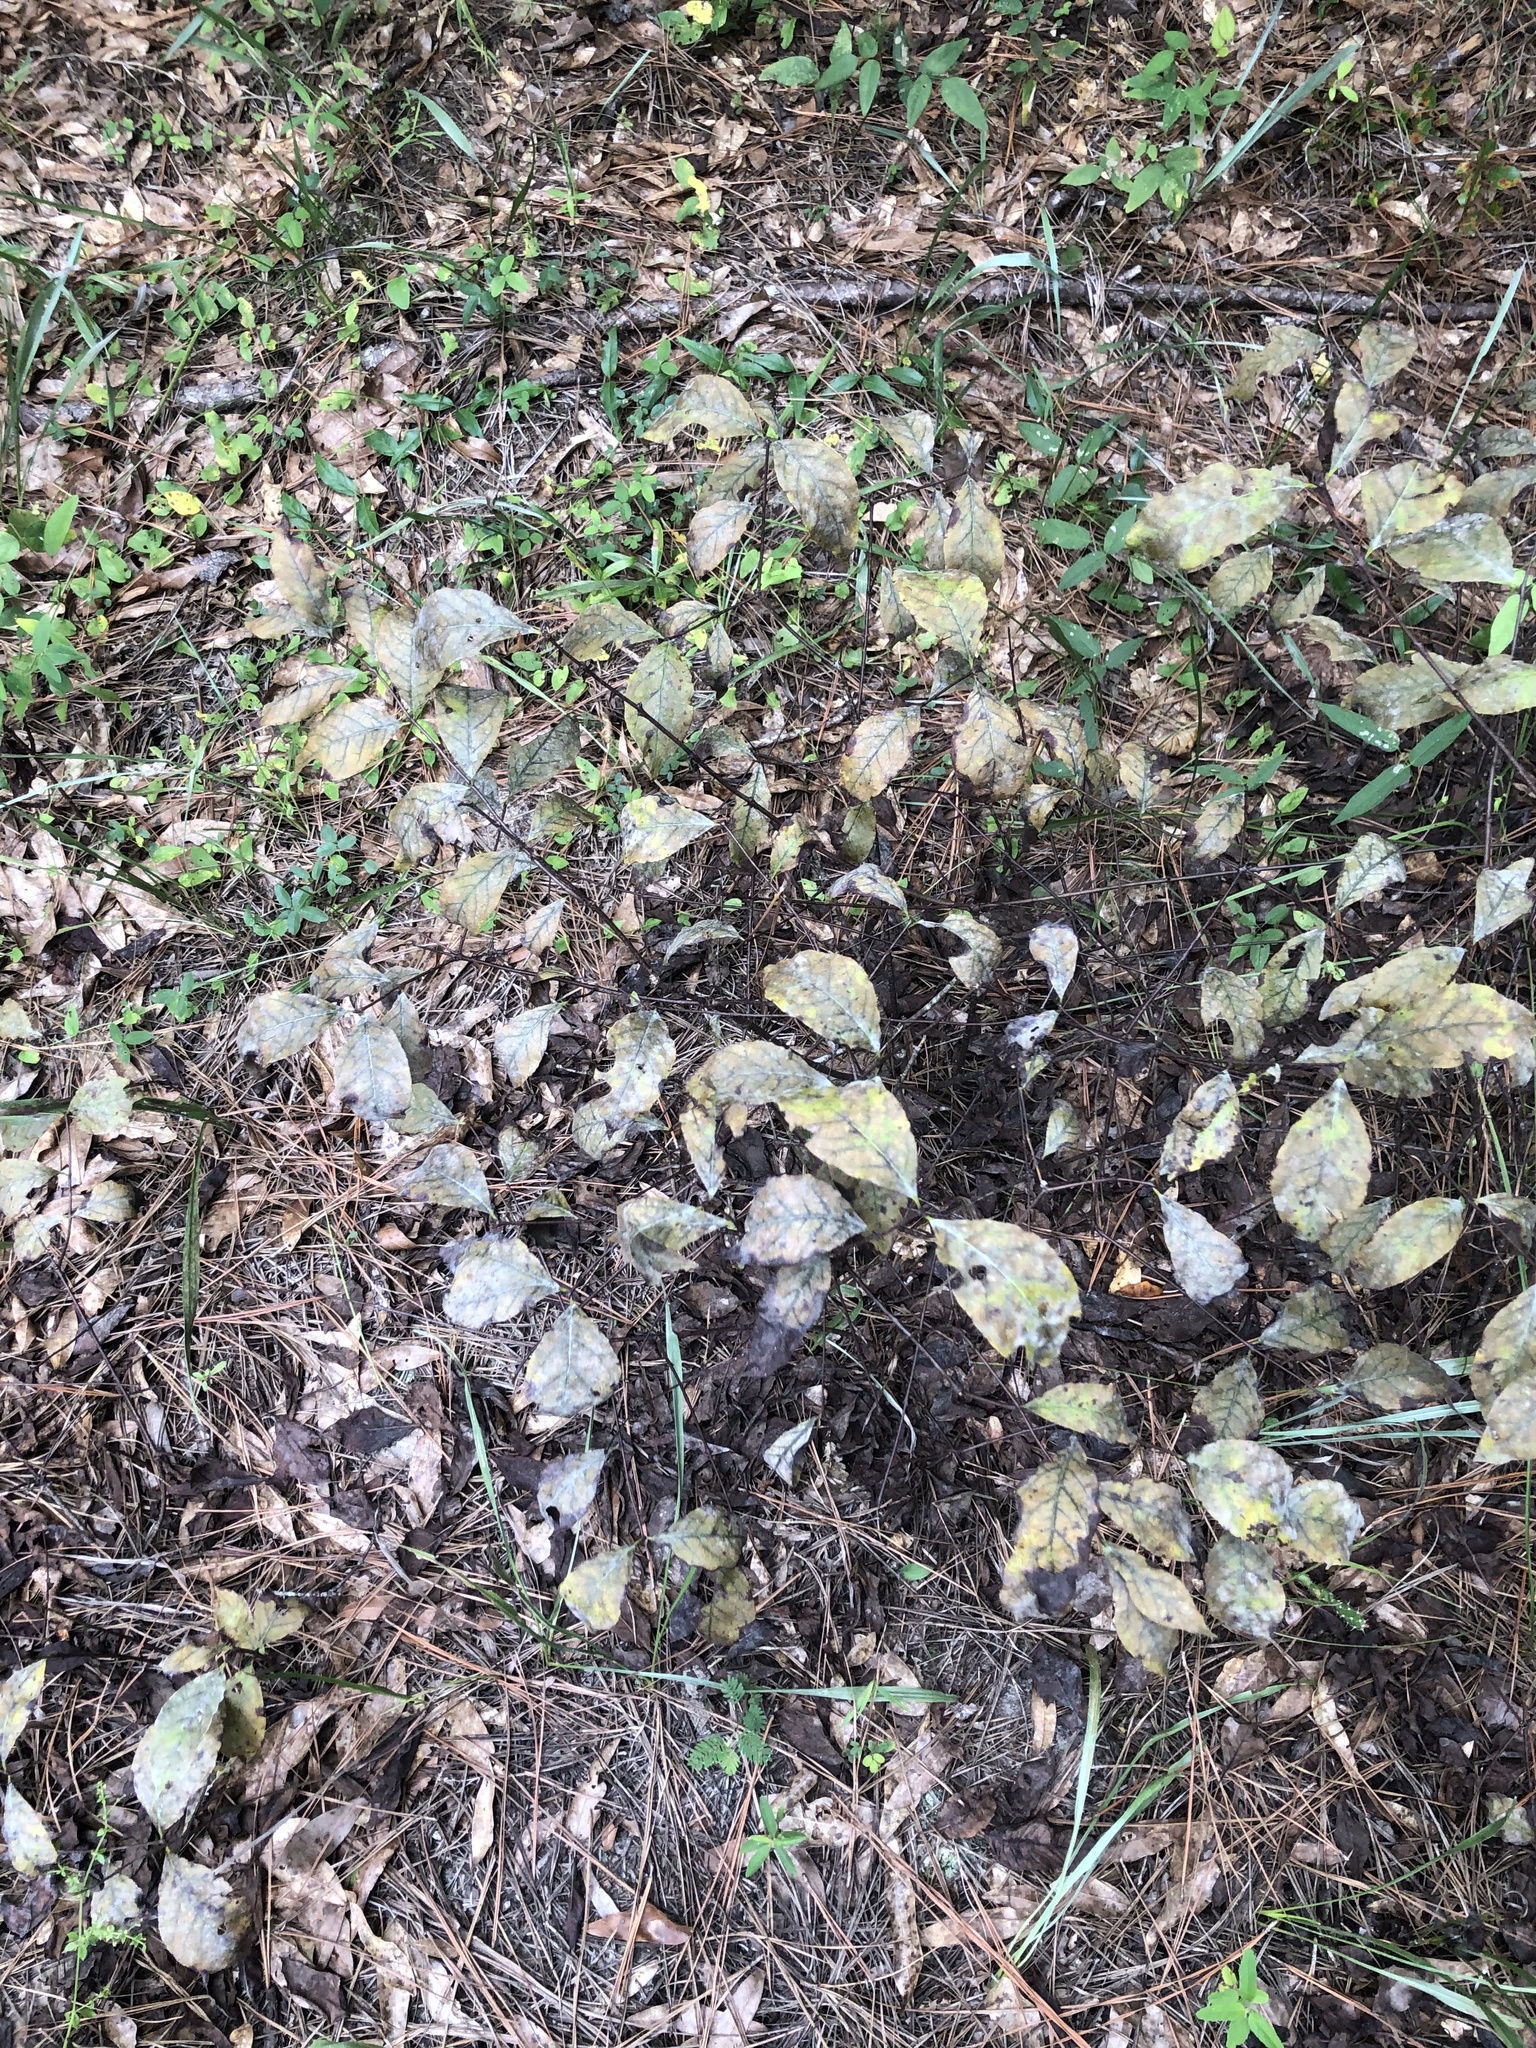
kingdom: Plantae
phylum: Tracheophyta
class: Magnoliopsida
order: Santalales
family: Santalaceae
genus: Nestronia
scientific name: Nestronia umbellula
